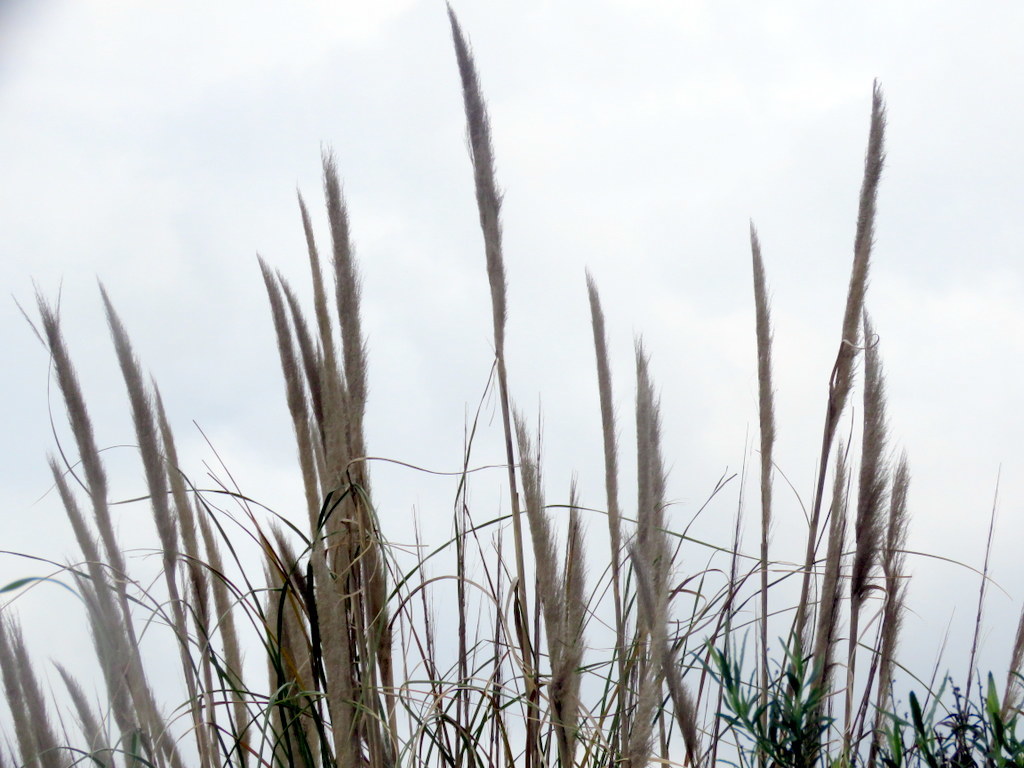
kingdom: Plantae
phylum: Tracheophyta
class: Liliopsida
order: Poales
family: Poaceae
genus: Cortaderia
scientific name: Cortaderia selloana
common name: Uruguayan pampas grass
